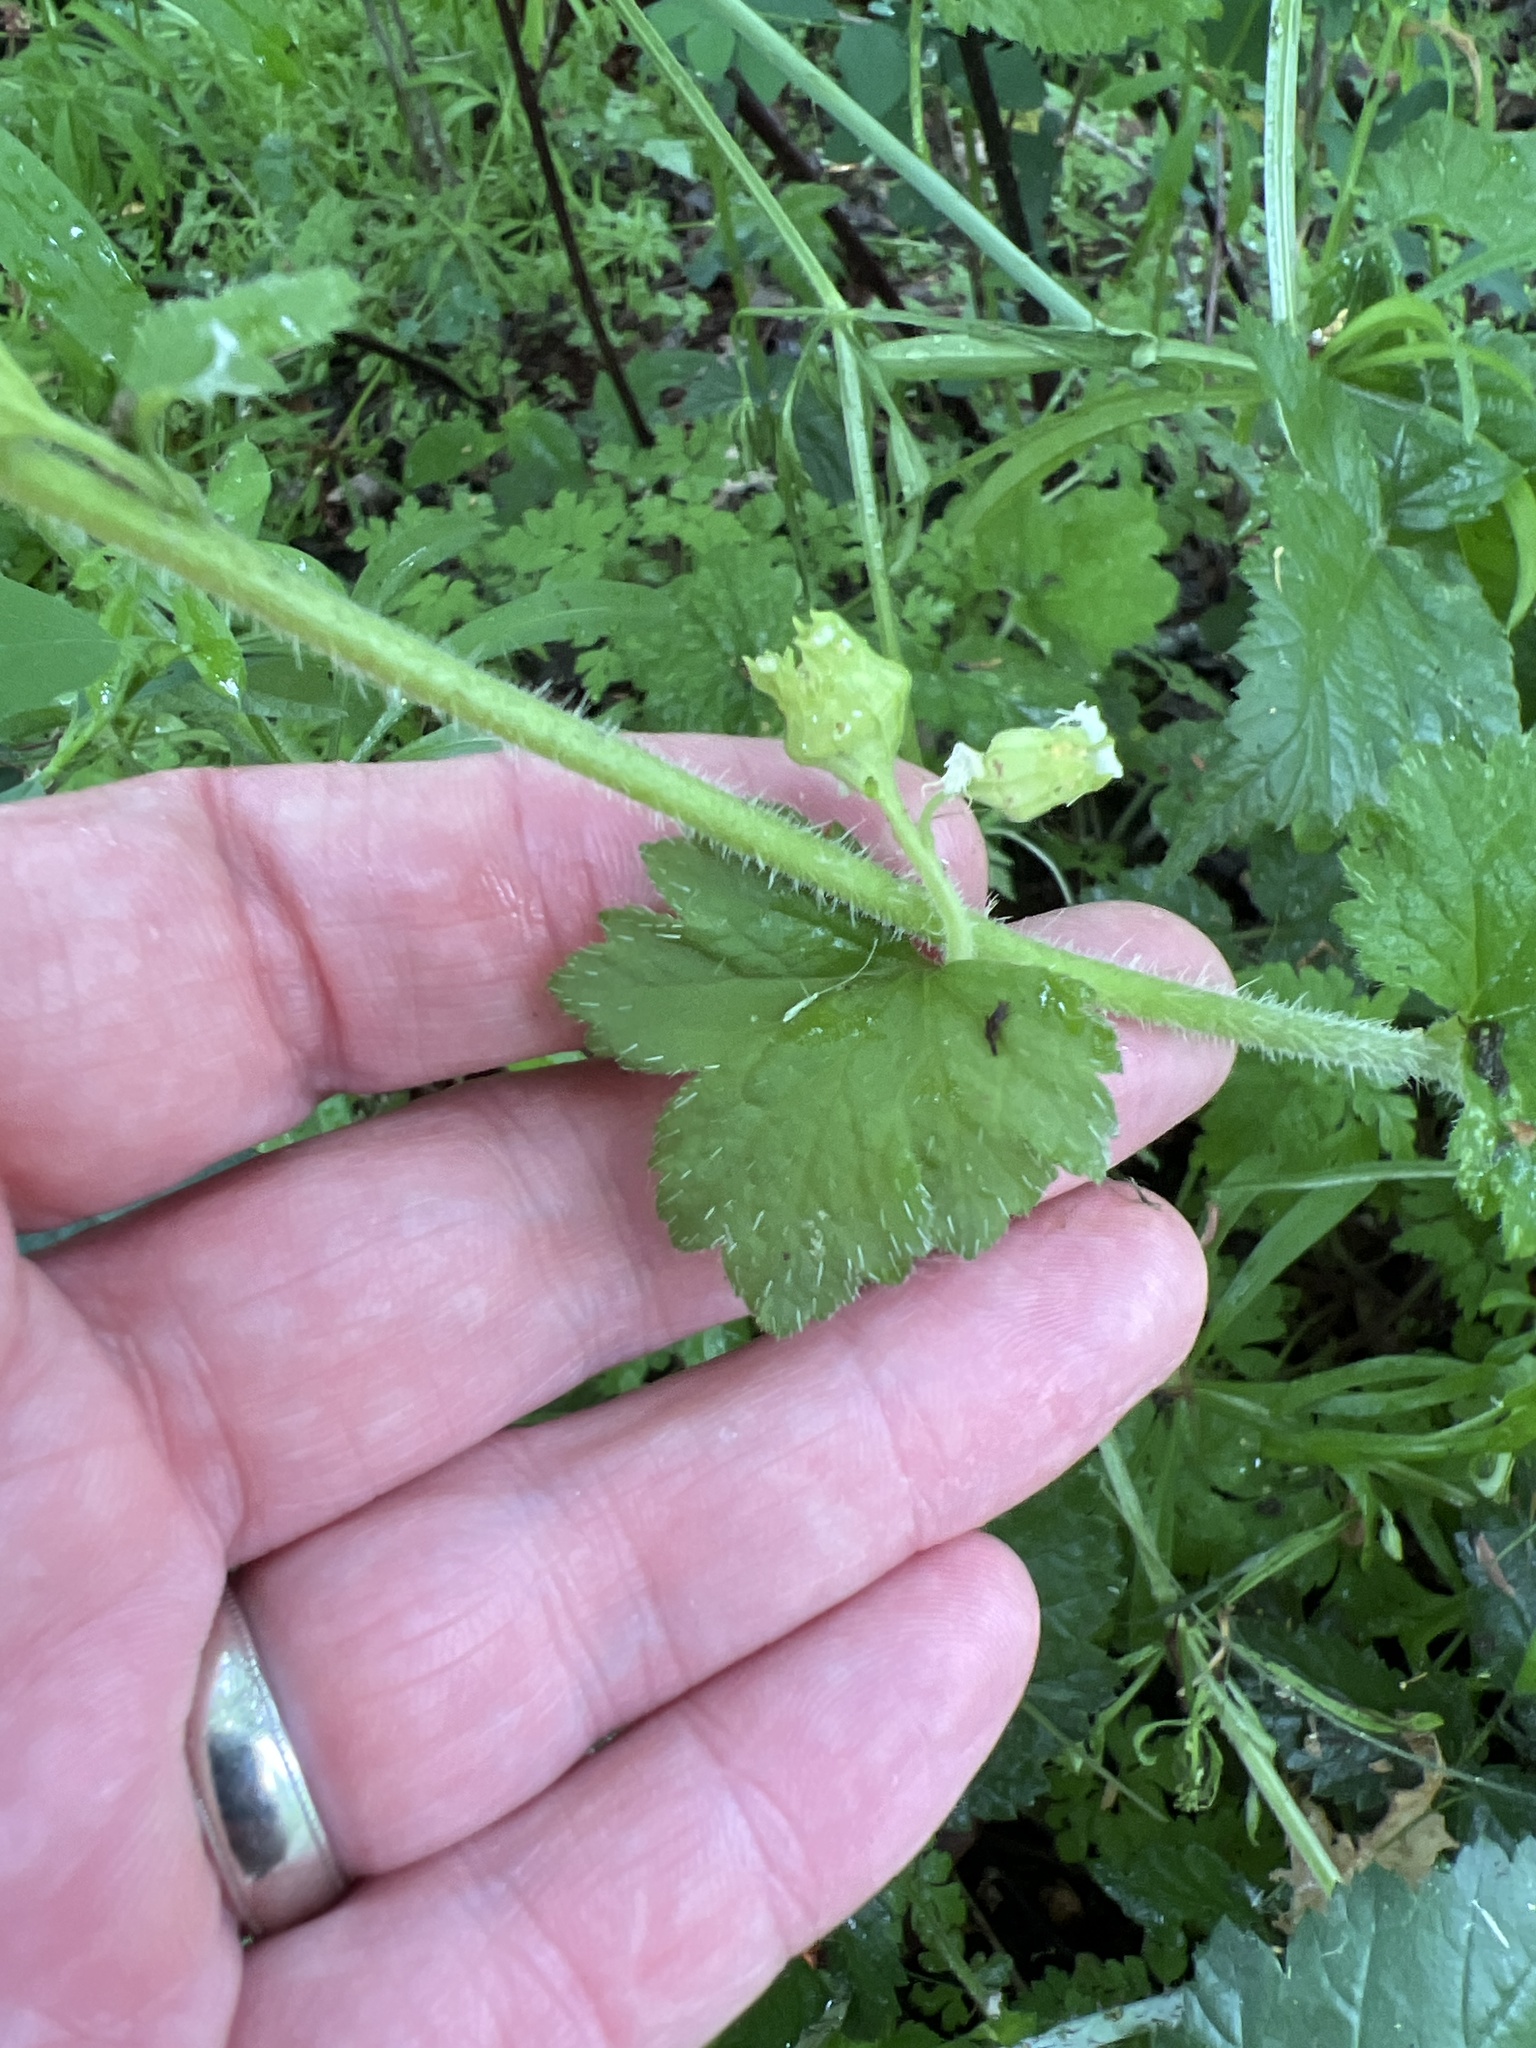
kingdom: Plantae
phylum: Tracheophyta
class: Magnoliopsida
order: Saxifragales
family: Saxifragaceae
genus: Tellima
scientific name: Tellima grandiflora
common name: Fringecups
